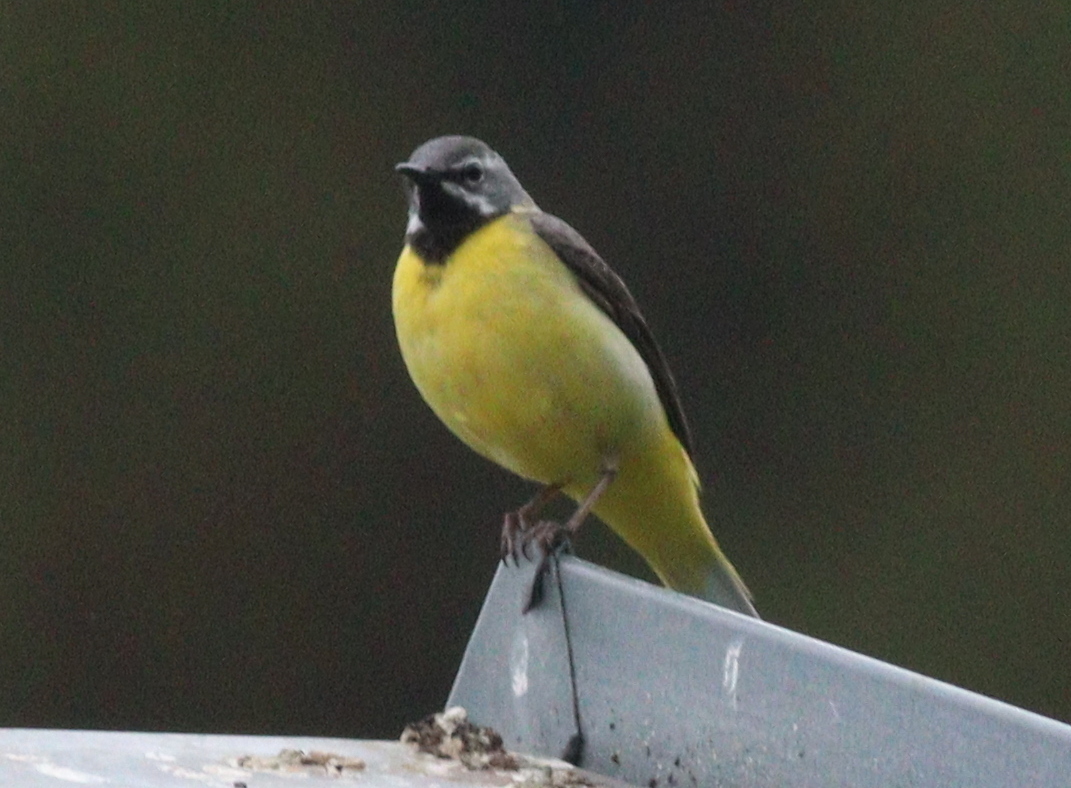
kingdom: Animalia
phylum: Chordata
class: Aves
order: Passeriformes
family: Motacillidae
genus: Motacilla
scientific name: Motacilla cinerea
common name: Grey wagtail
